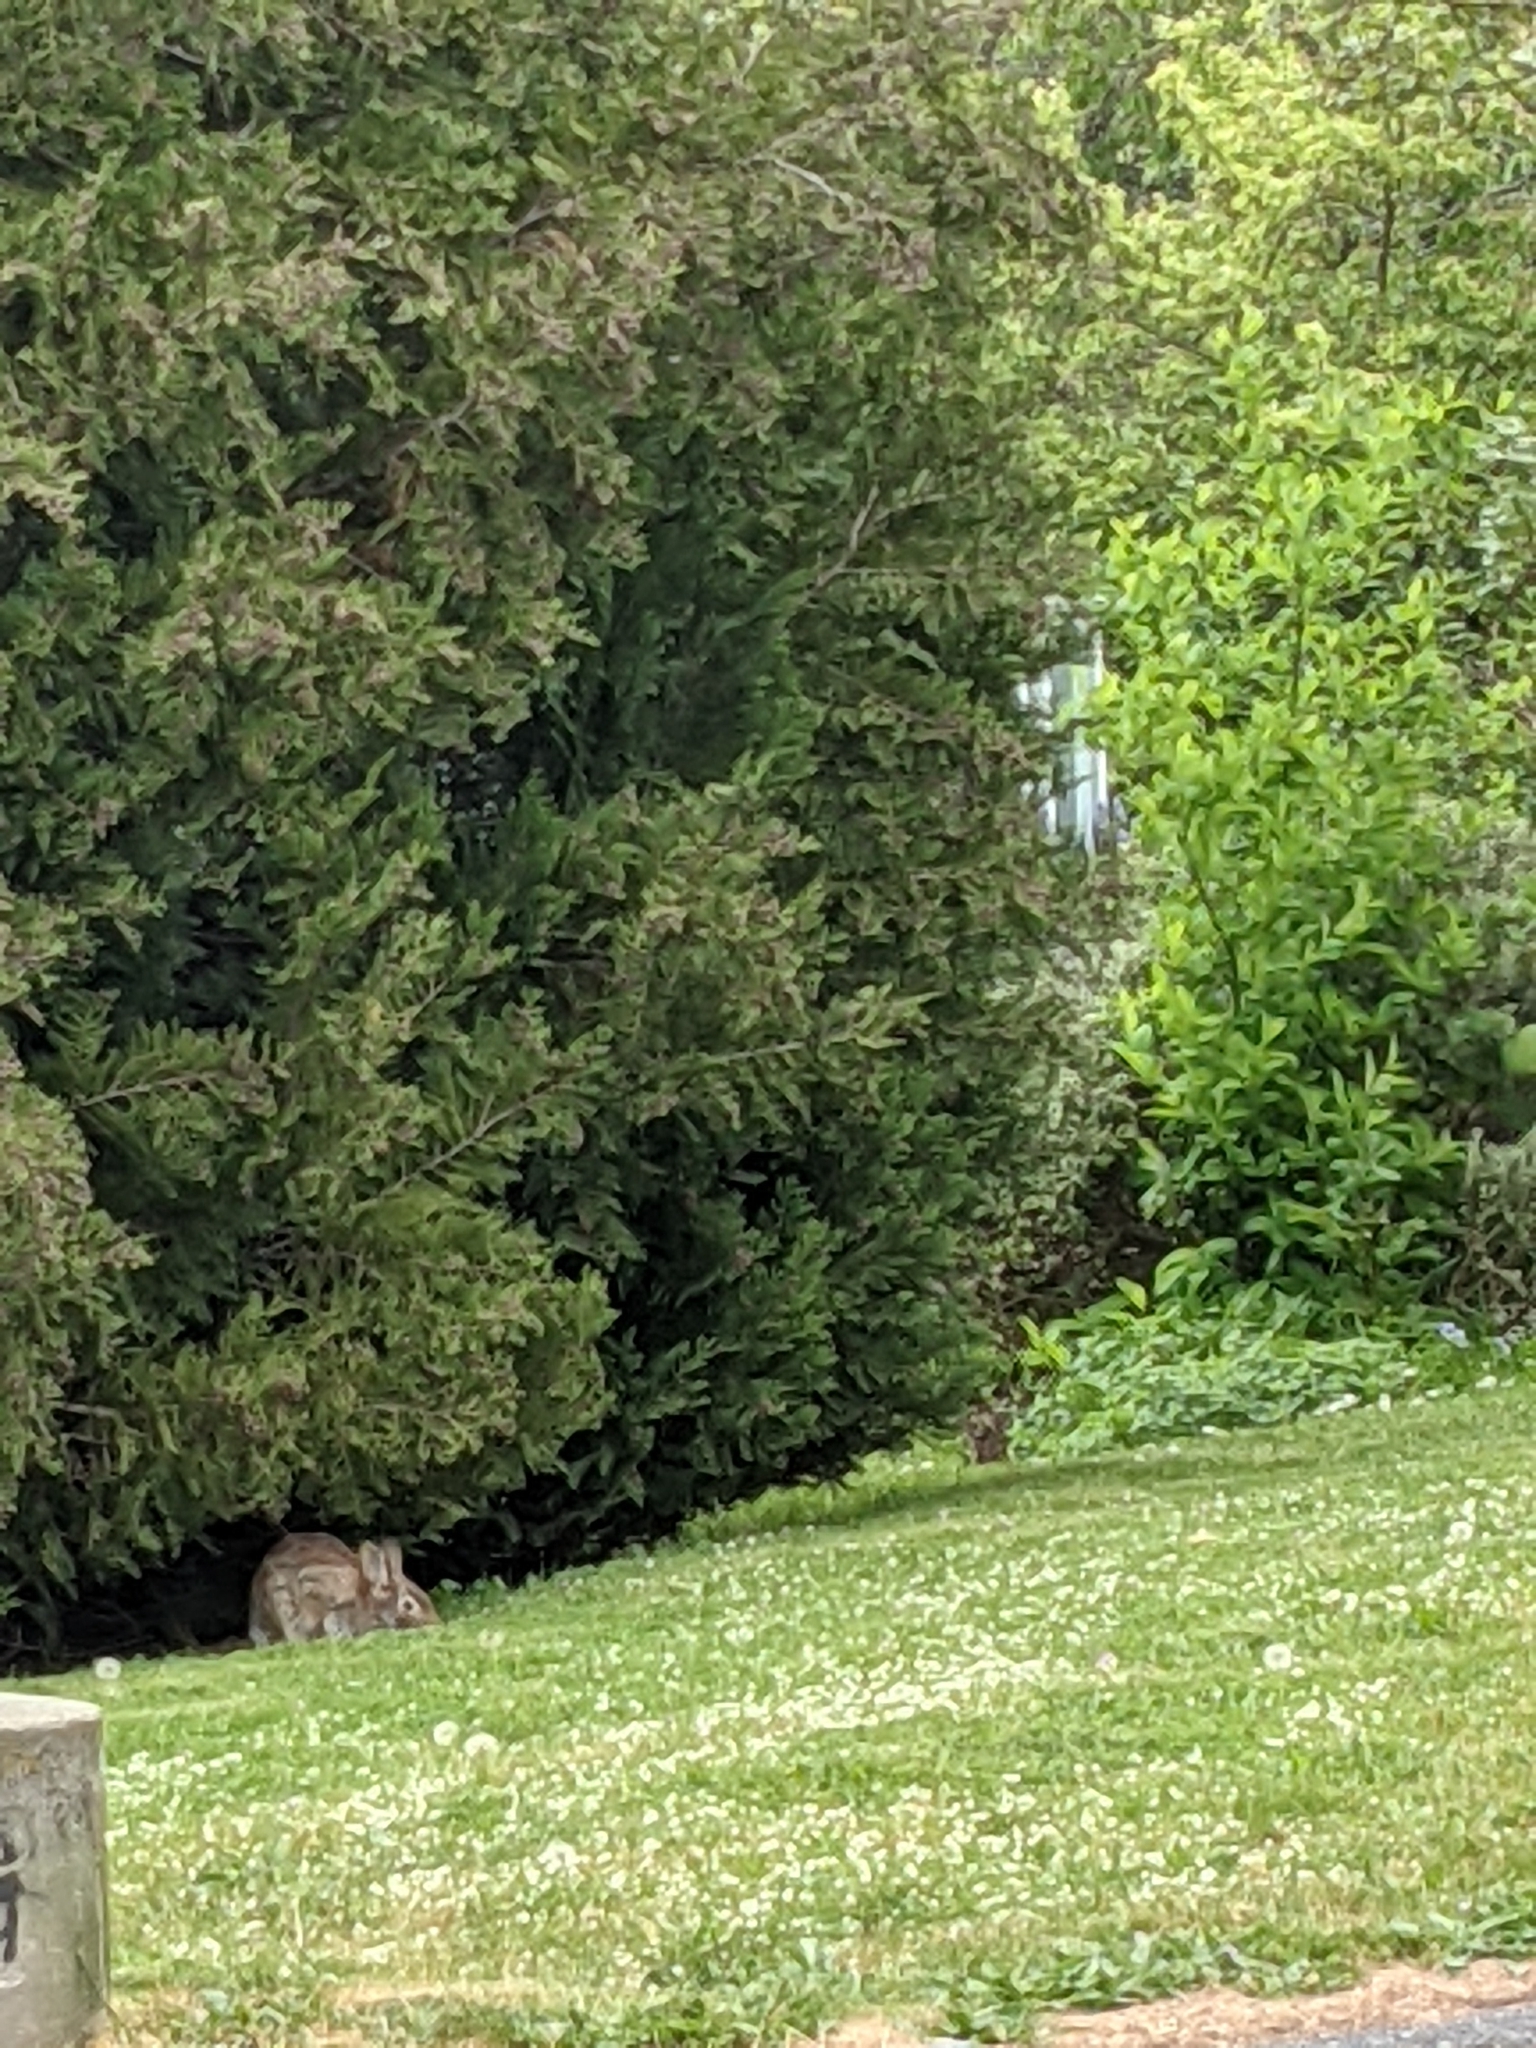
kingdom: Animalia
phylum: Chordata
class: Mammalia
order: Lagomorpha
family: Leporidae
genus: Sylvilagus
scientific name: Sylvilagus floridanus
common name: Eastern cottontail
